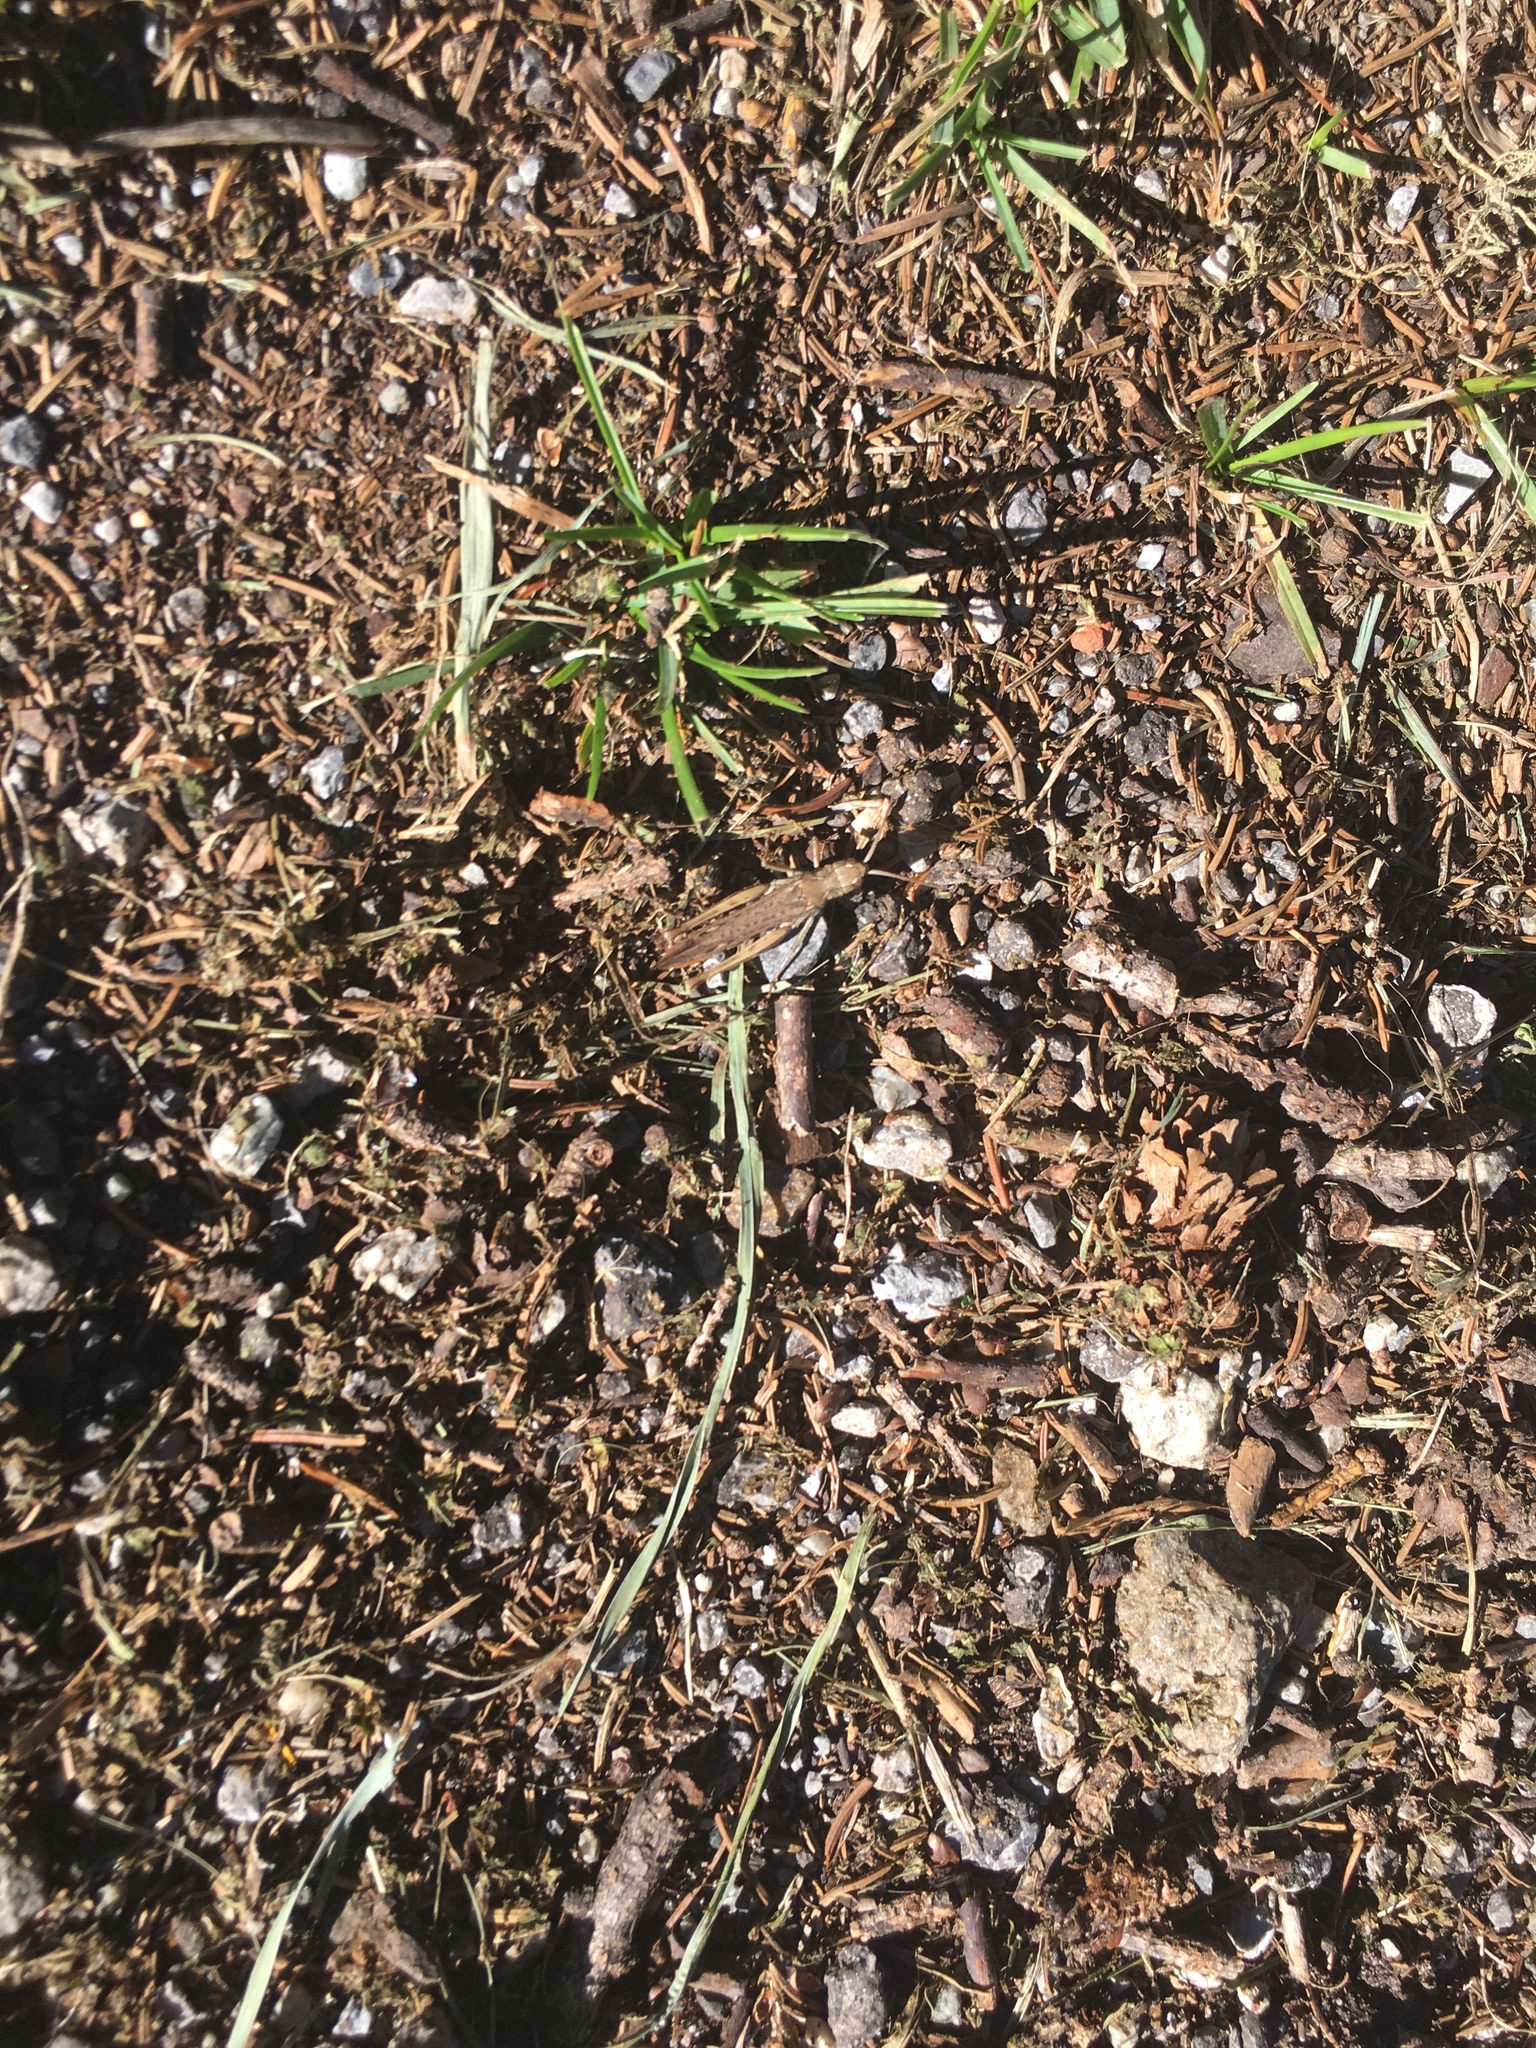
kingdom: Animalia
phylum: Arthropoda
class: Insecta
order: Orthoptera
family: Acrididae
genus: Glyptobothrus
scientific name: Glyptobothrus
